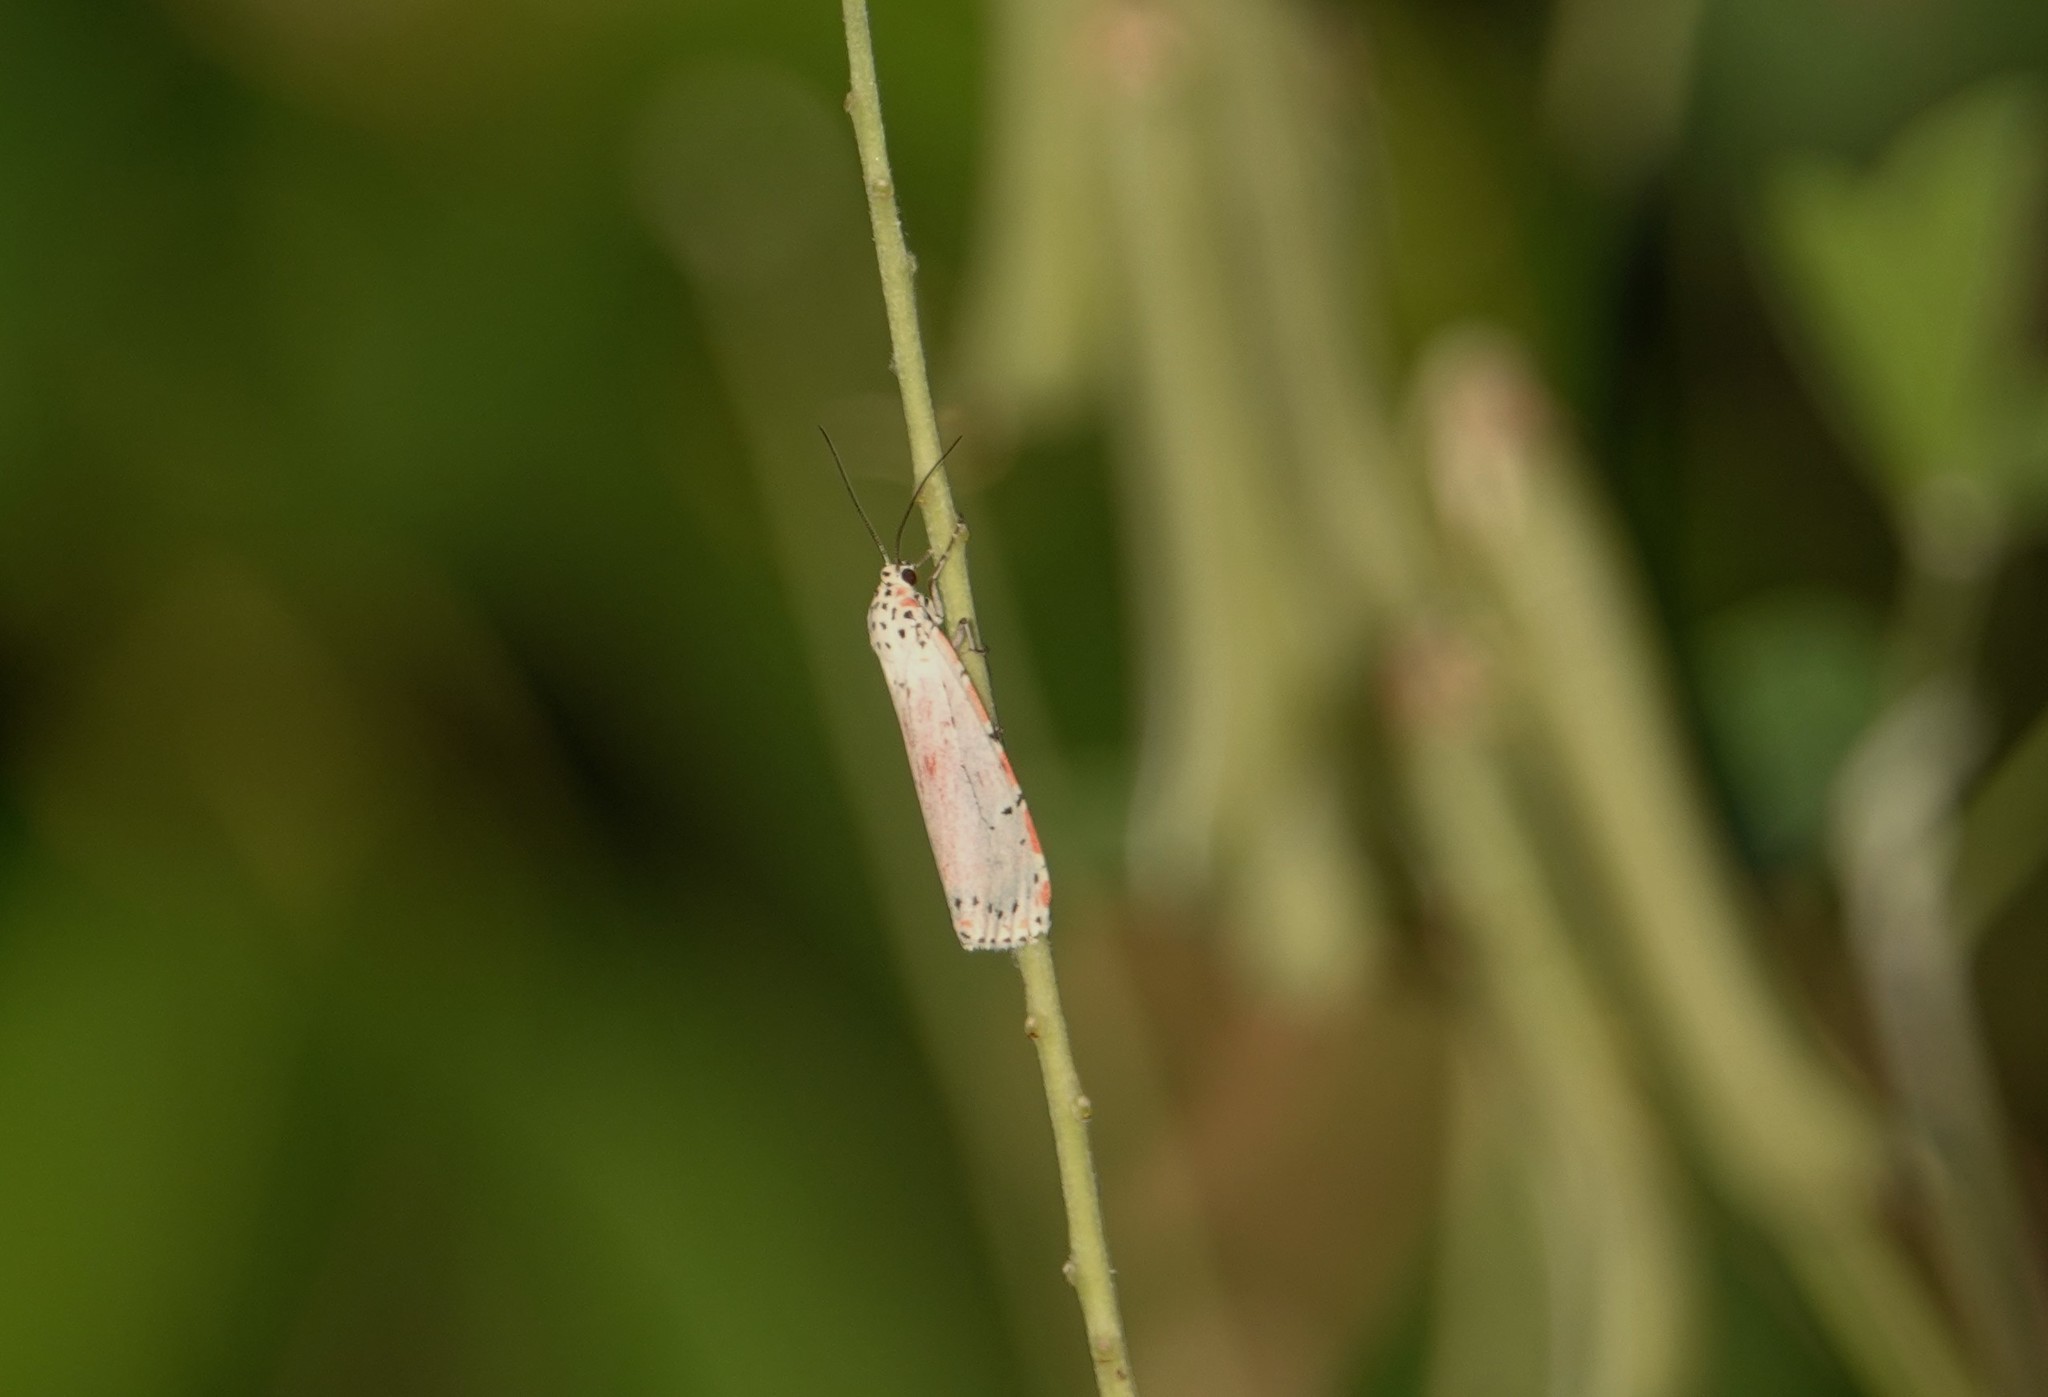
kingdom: Animalia
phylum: Arthropoda
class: Insecta
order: Lepidoptera
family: Erebidae
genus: Utetheisa
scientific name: Utetheisa ornatrix
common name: Beautiful utetheisa
